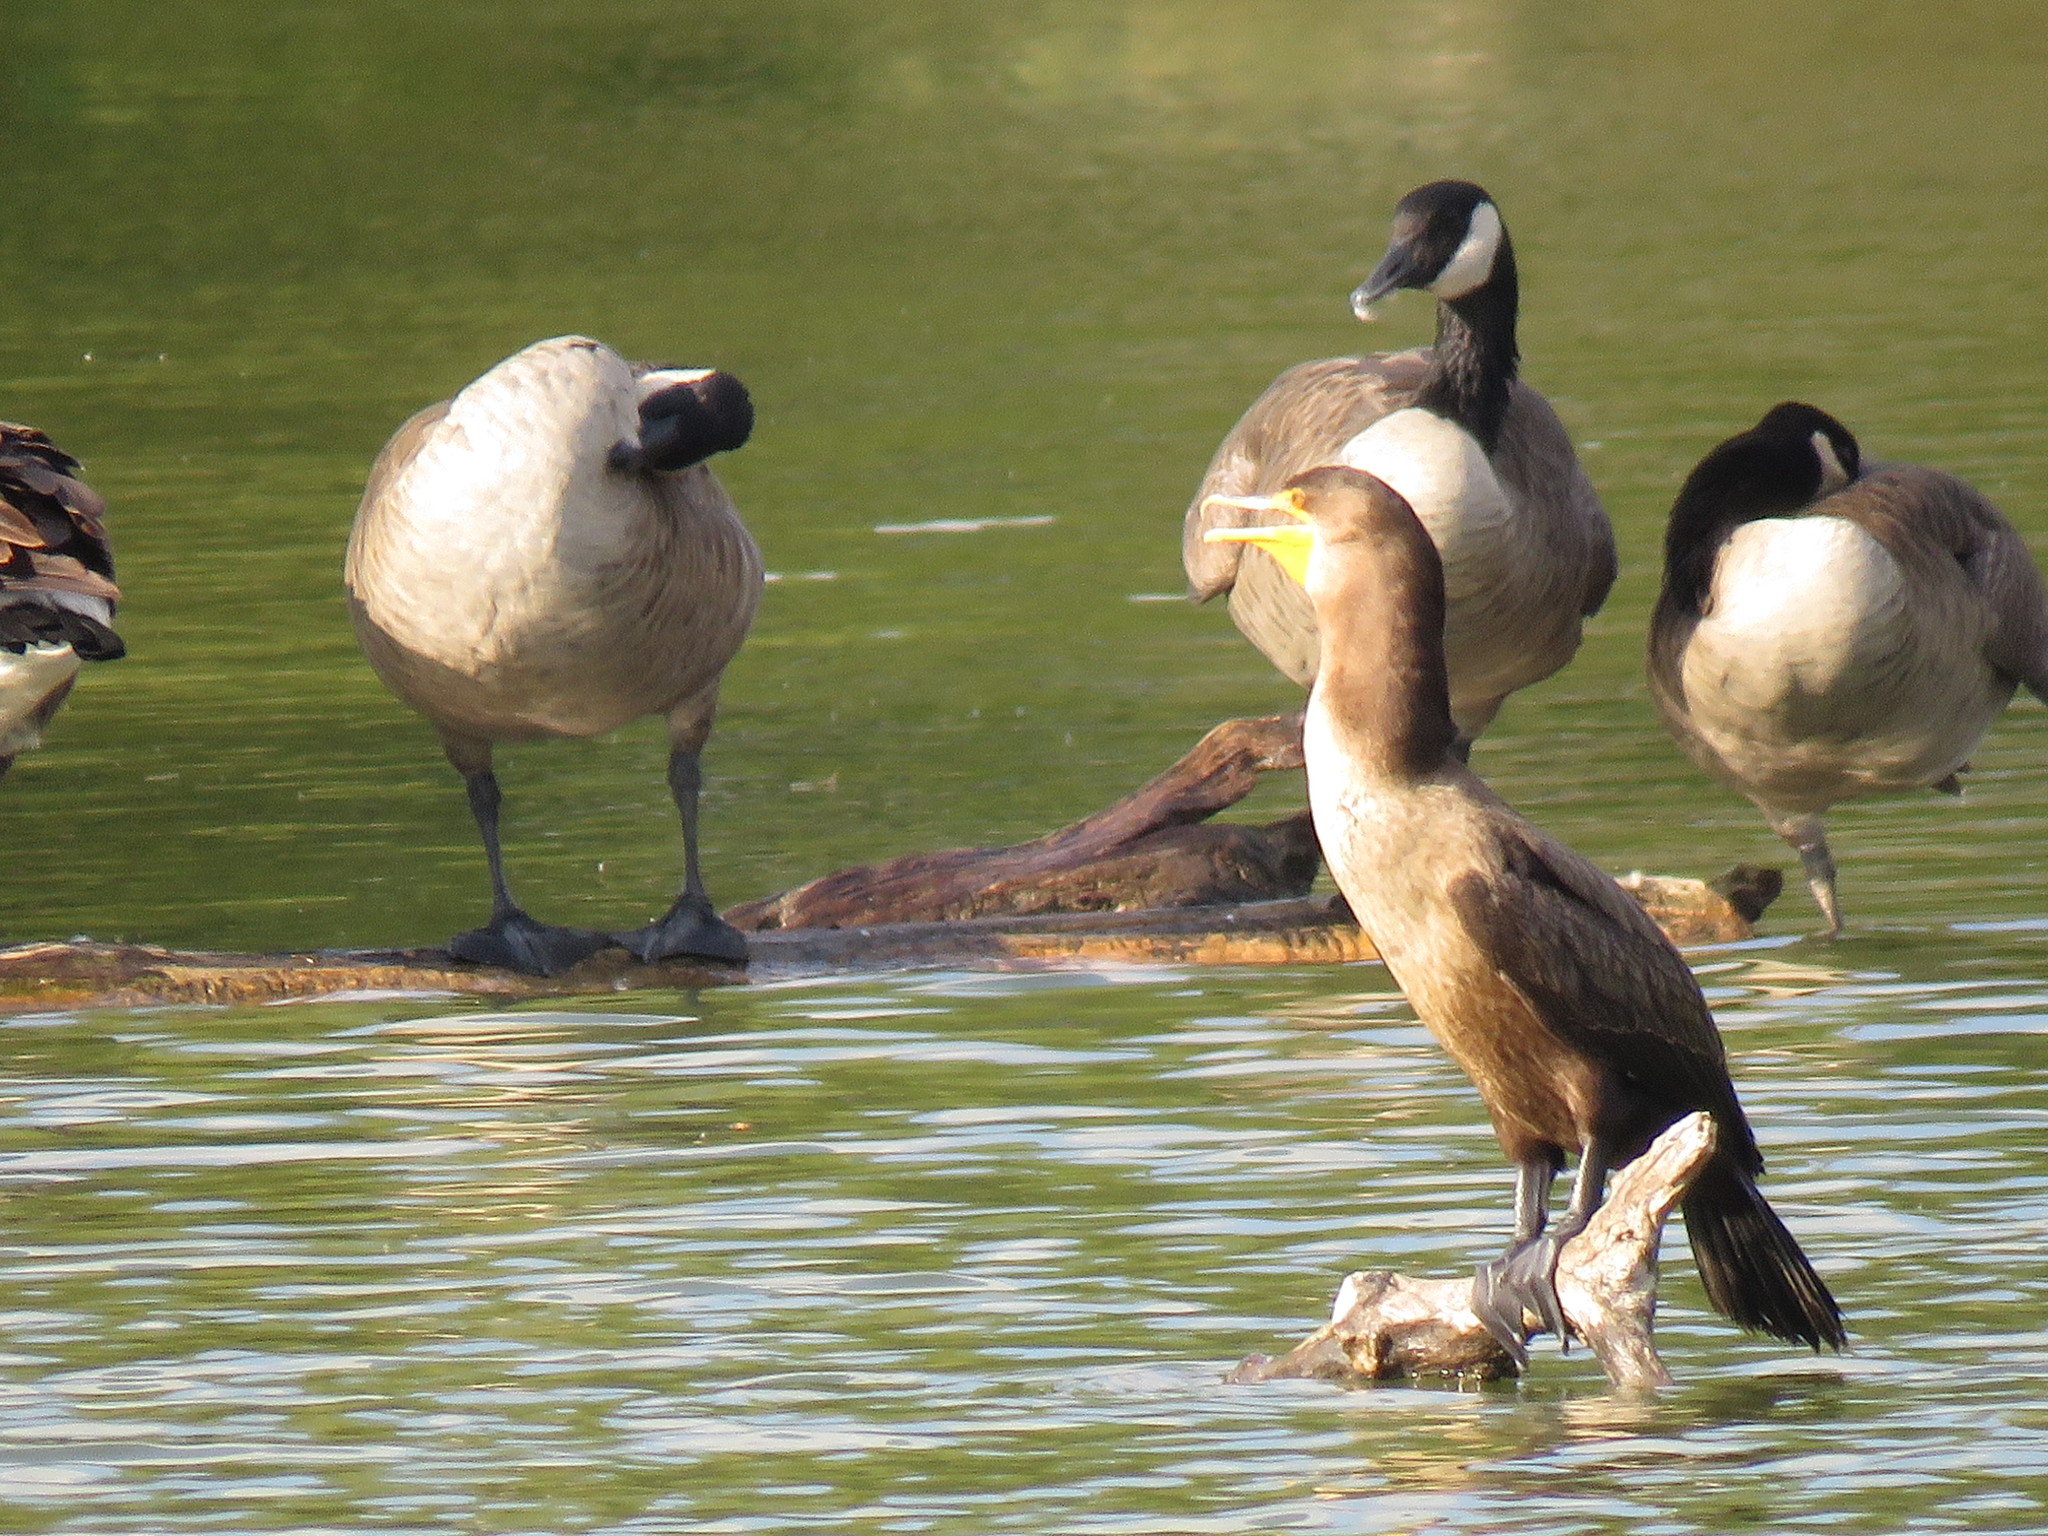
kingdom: Animalia
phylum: Chordata
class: Aves
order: Suliformes
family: Phalacrocoracidae
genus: Phalacrocorax
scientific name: Phalacrocorax auritus
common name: Double-crested cormorant
